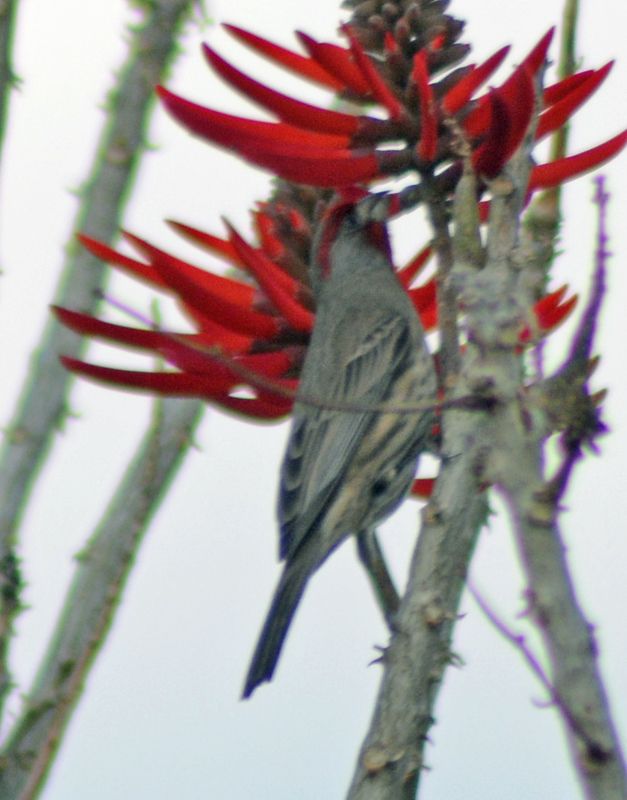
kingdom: Animalia
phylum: Chordata
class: Aves
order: Passeriformes
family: Fringillidae
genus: Haemorhous
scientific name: Haemorhous mexicanus
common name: House finch
